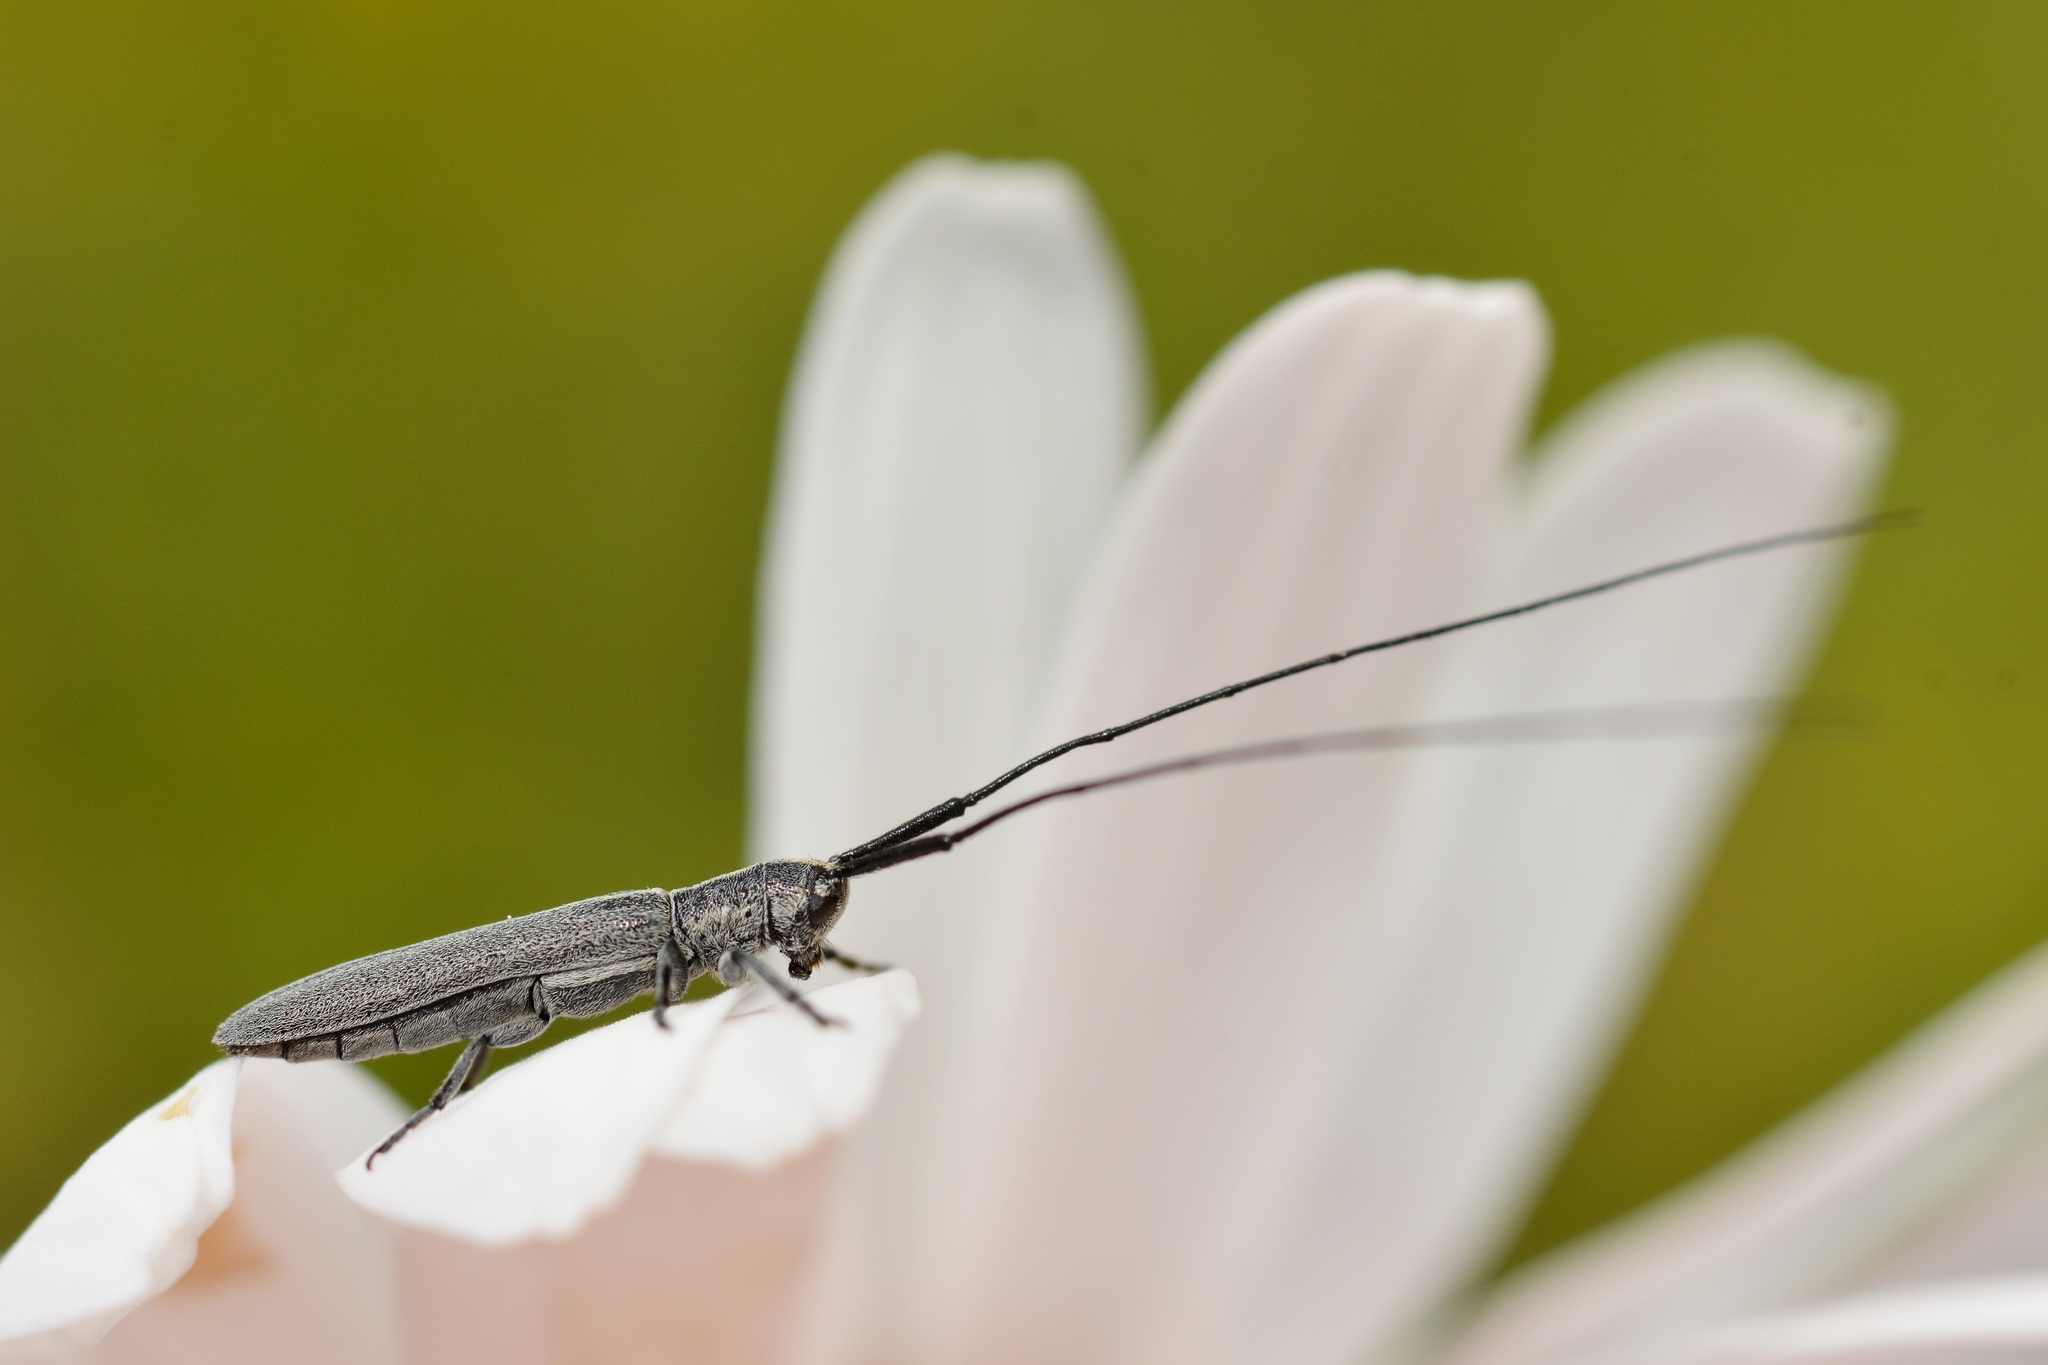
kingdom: Animalia
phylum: Arthropoda
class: Insecta
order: Coleoptera
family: Cerambycidae
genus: Calamobius
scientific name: Calamobius filum
